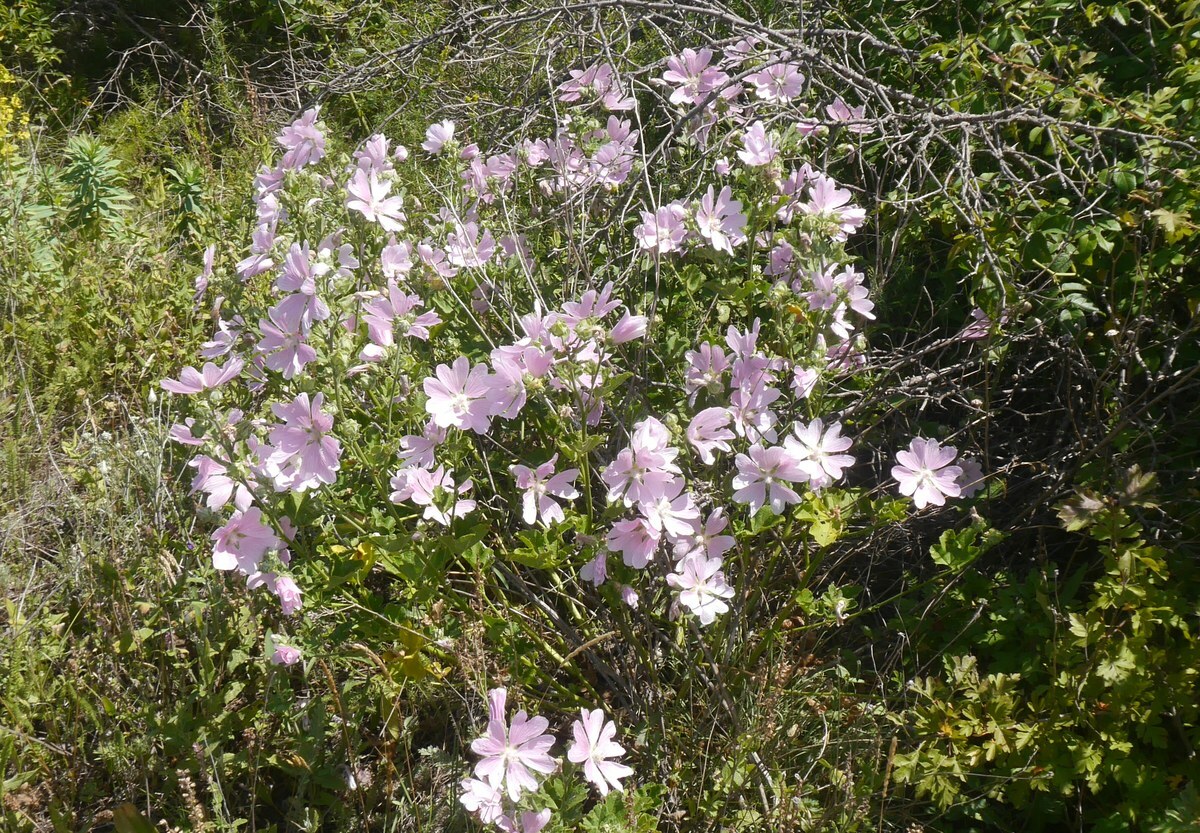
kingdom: Plantae
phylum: Tracheophyta
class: Magnoliopsida
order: Malvales
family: Malvaceae
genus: Malva
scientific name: Malva thuringiaca
